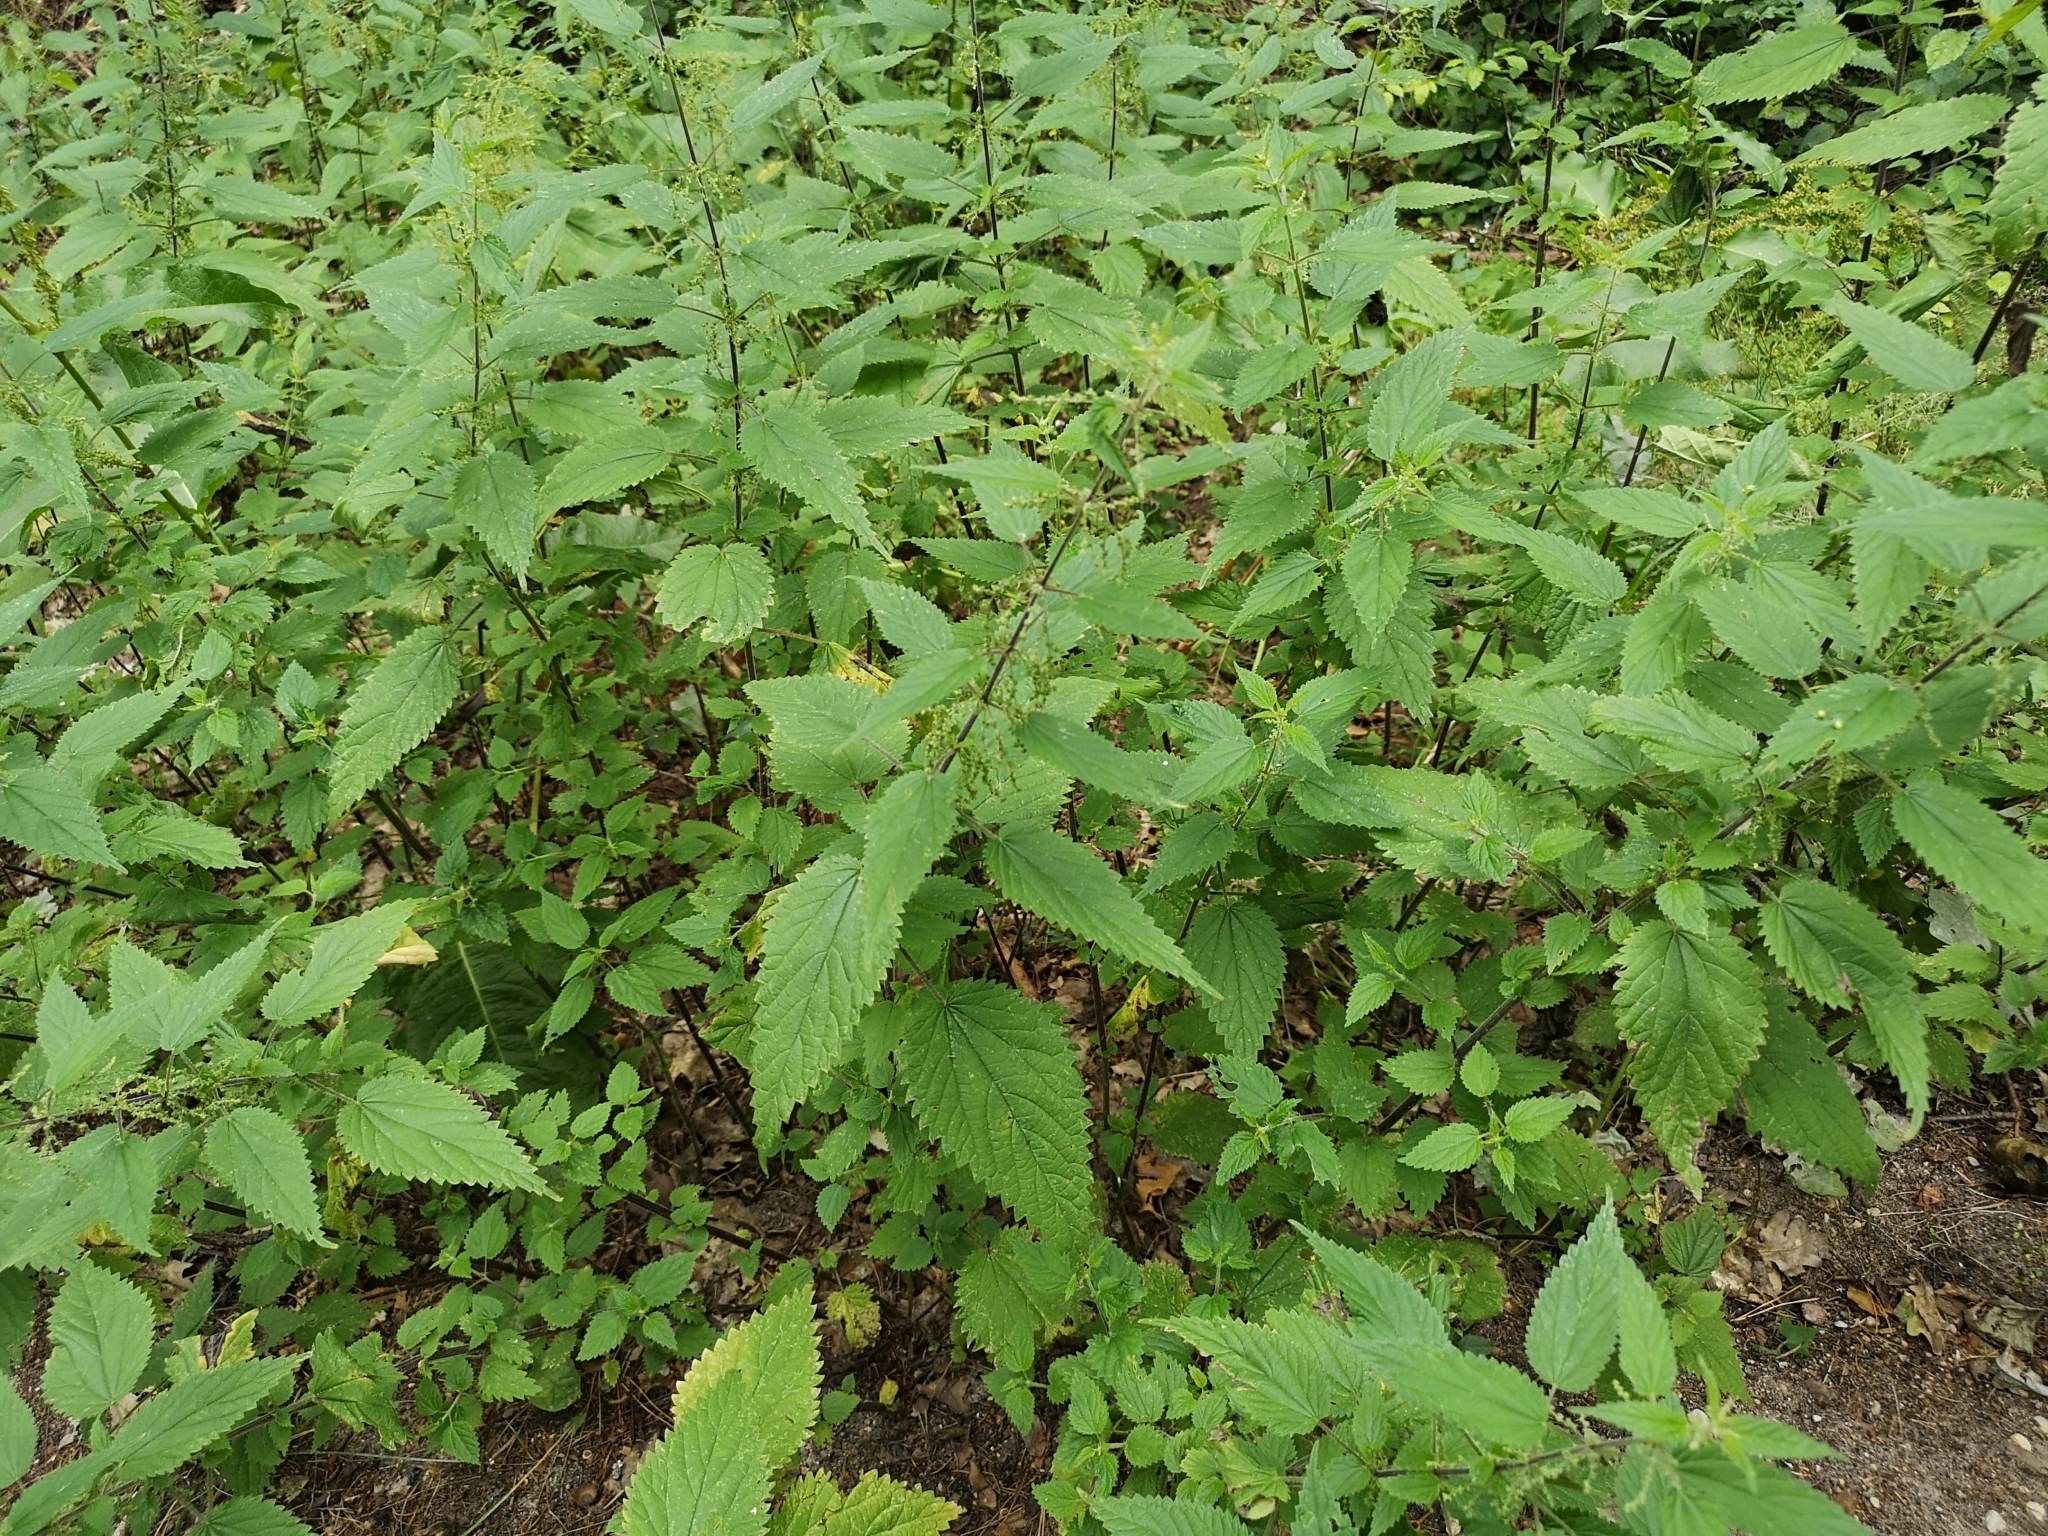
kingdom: Plantae
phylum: Tracheophyta
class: Magnoliopsida
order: Rosales
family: Urticaceae
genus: Urtica
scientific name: Urtica dioica
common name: Common nettle
